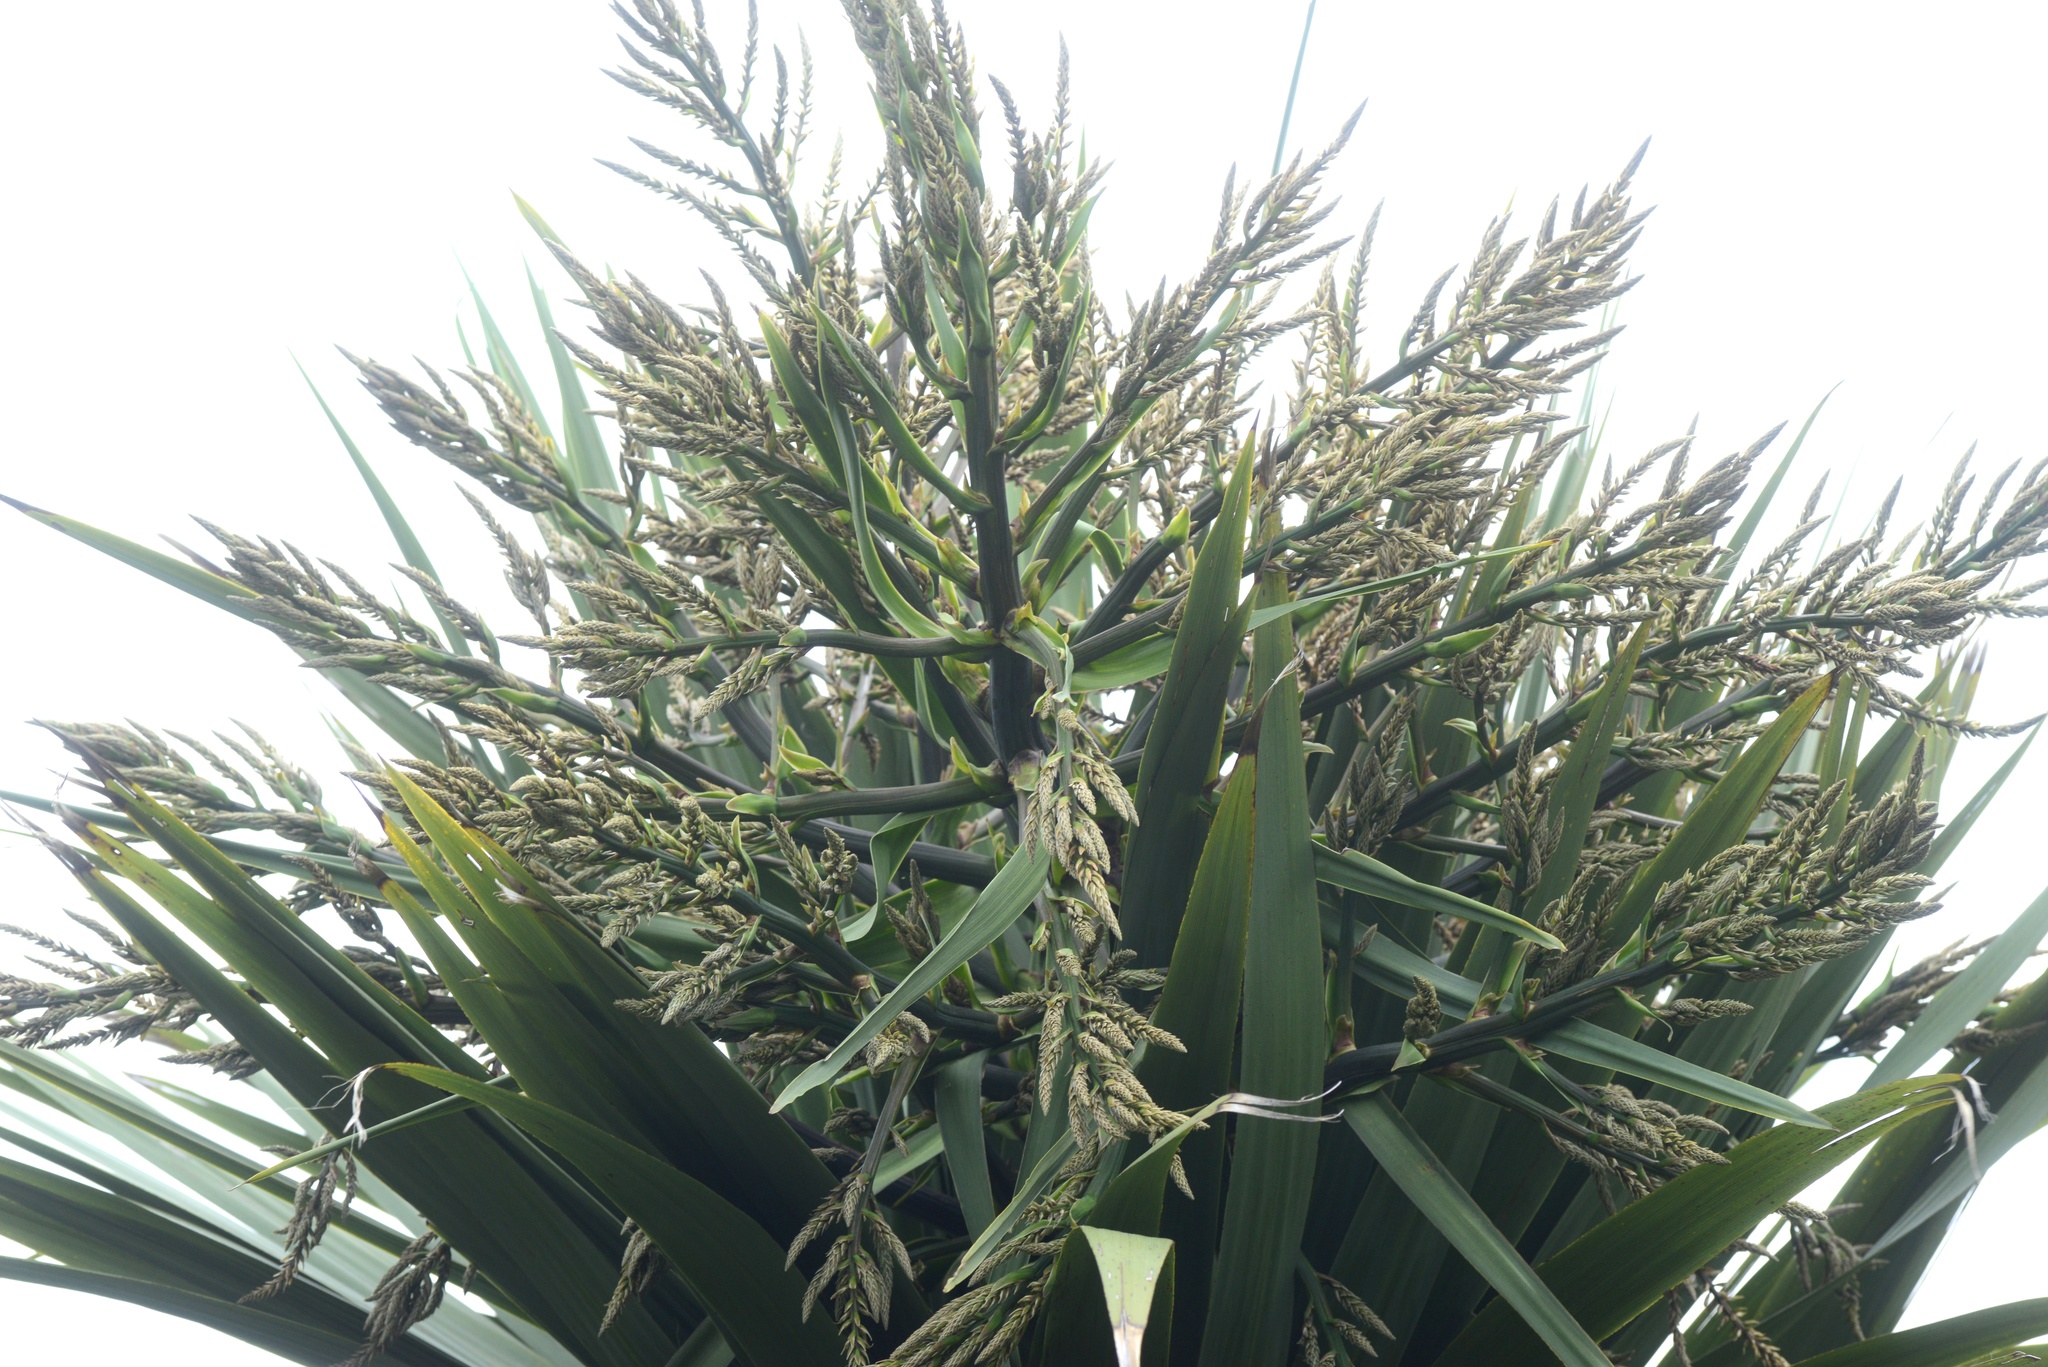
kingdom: Plantae
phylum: Tracheophyta
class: Liliopsida
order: Asparagales
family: Asparagaceae
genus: Cordyline
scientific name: Cordyline australis
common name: Cabbage-palm
